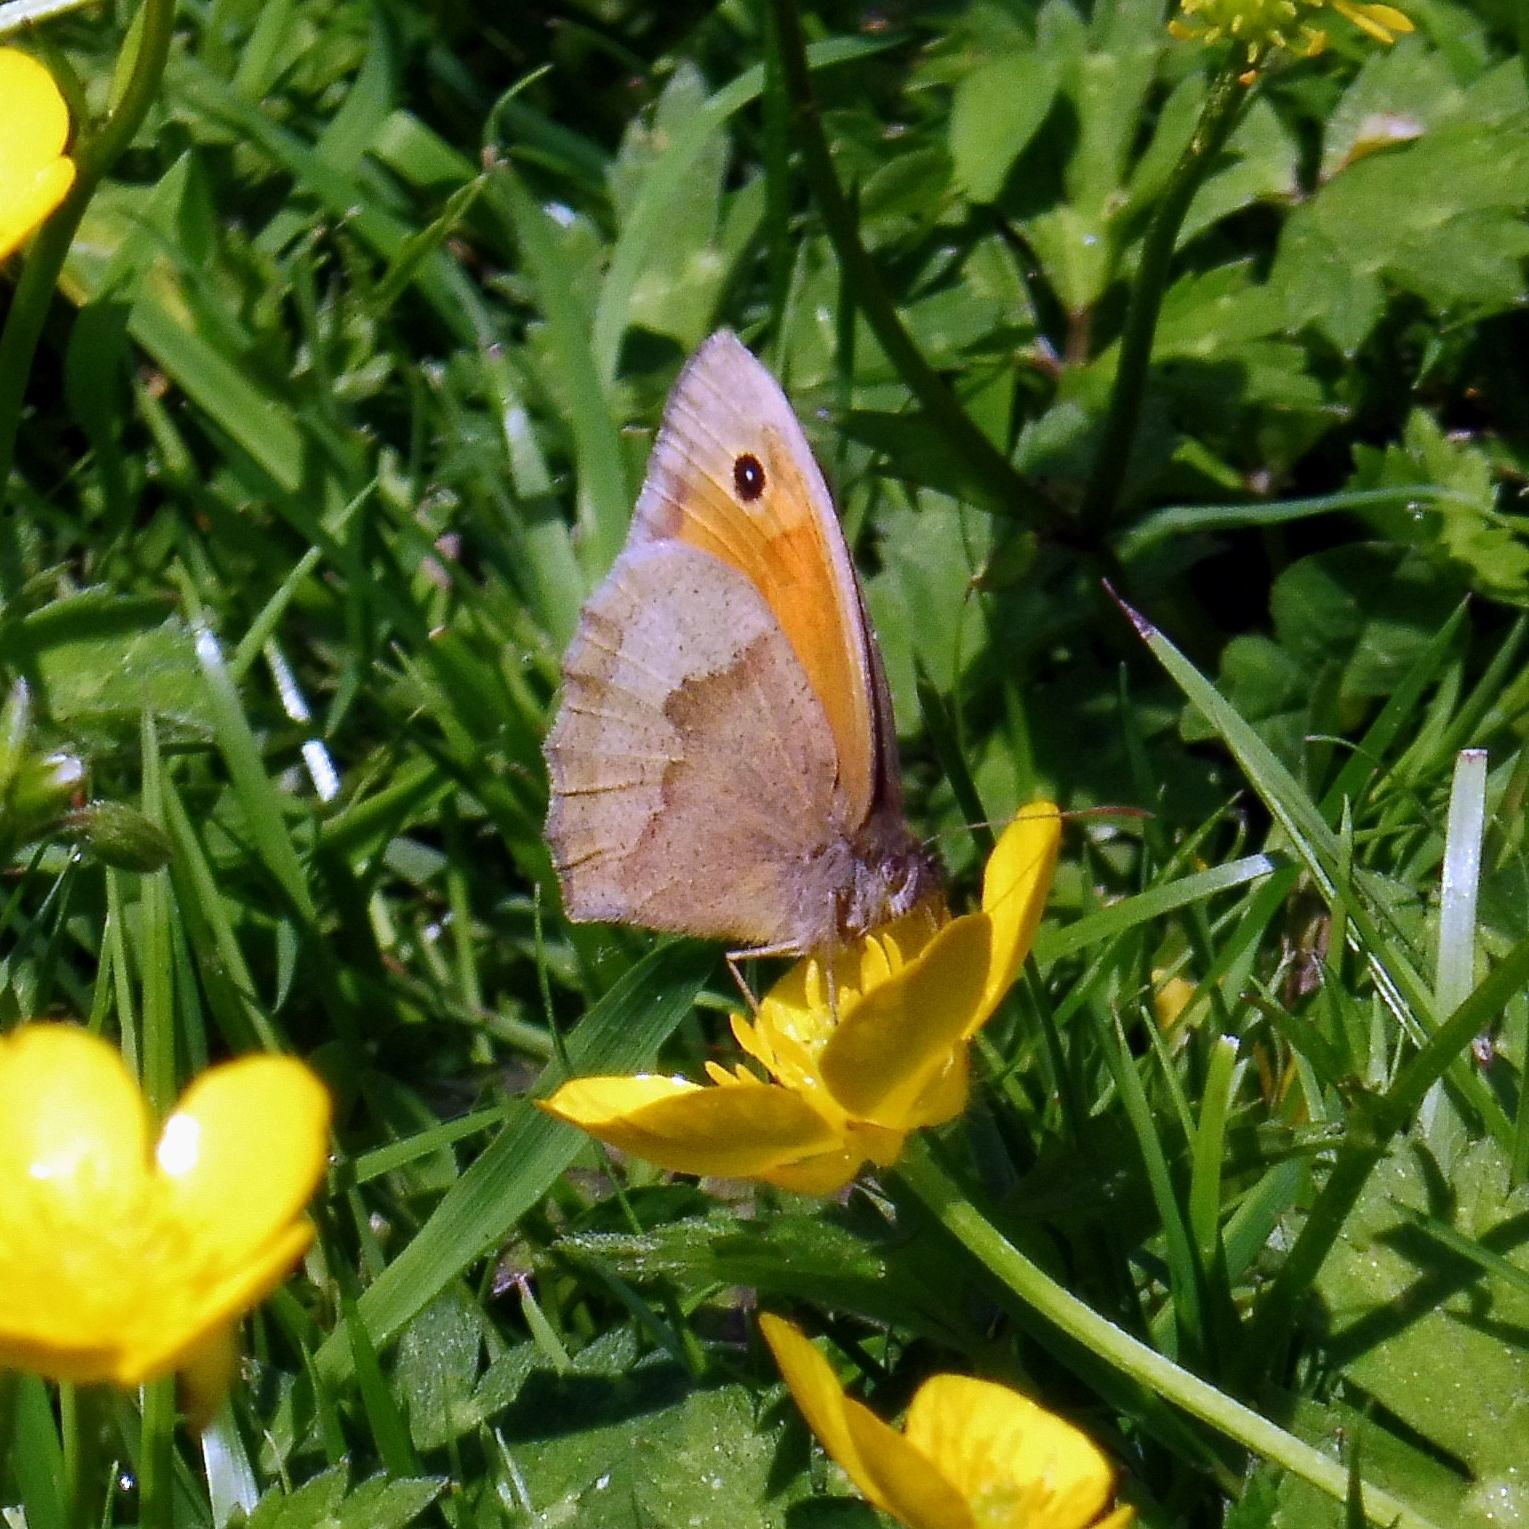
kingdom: Animalia
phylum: Arthropoda
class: Insecta
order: Lepidoptera
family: Nymphalidae
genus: Maniola
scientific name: Maniola jurtina
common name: Meadow brown
